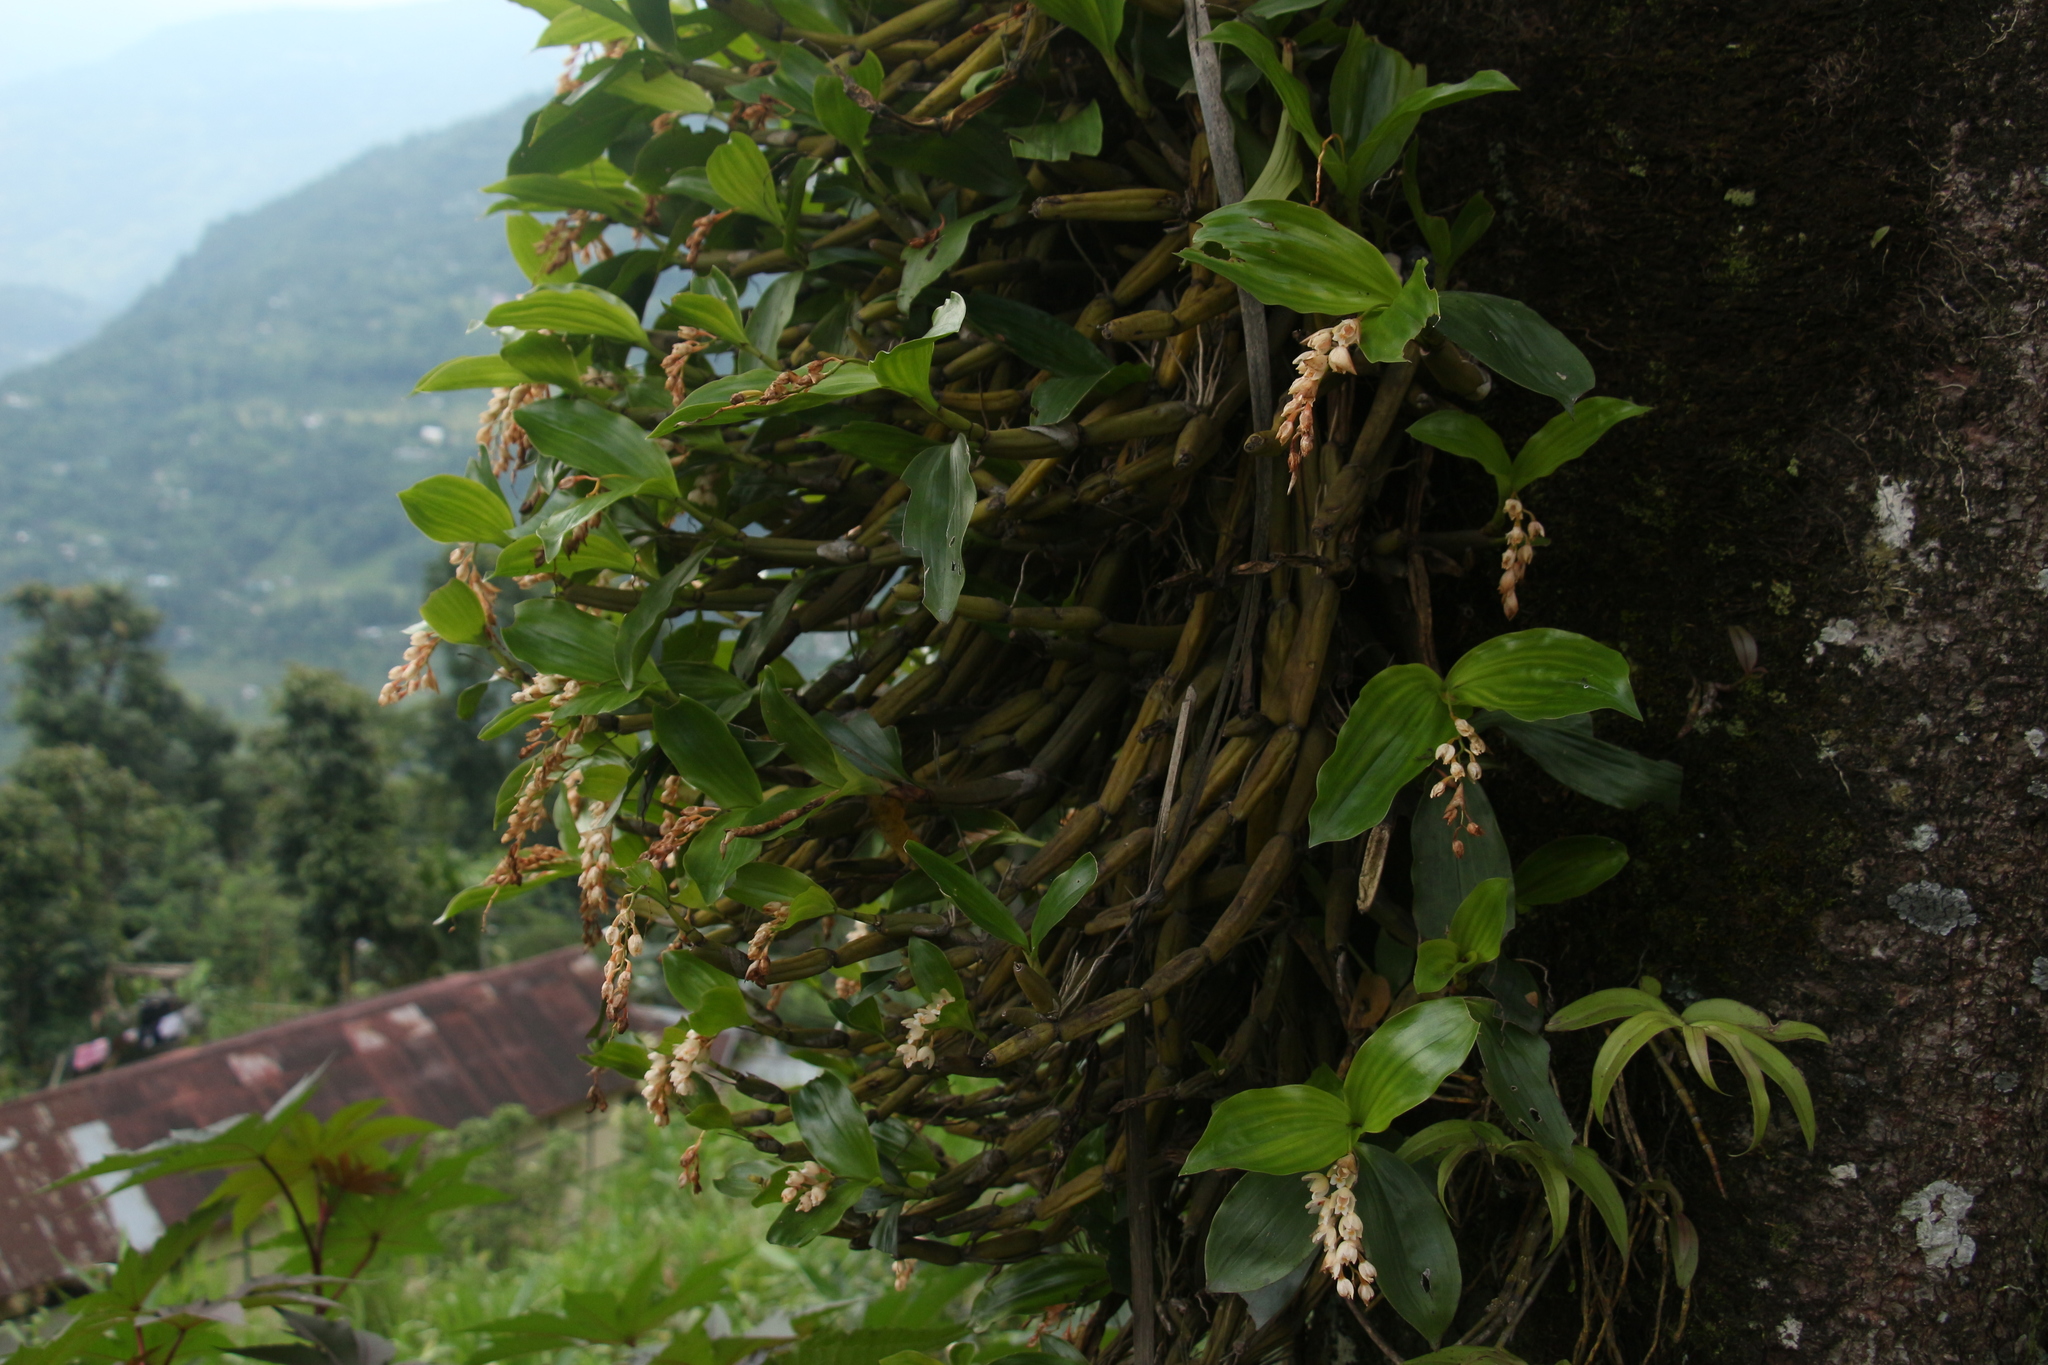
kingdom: Plantae
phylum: Tracheophyta
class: Liliopsida
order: Asparagales
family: Orchidaceae
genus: Coelogyne
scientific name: Coelogyne articulata
